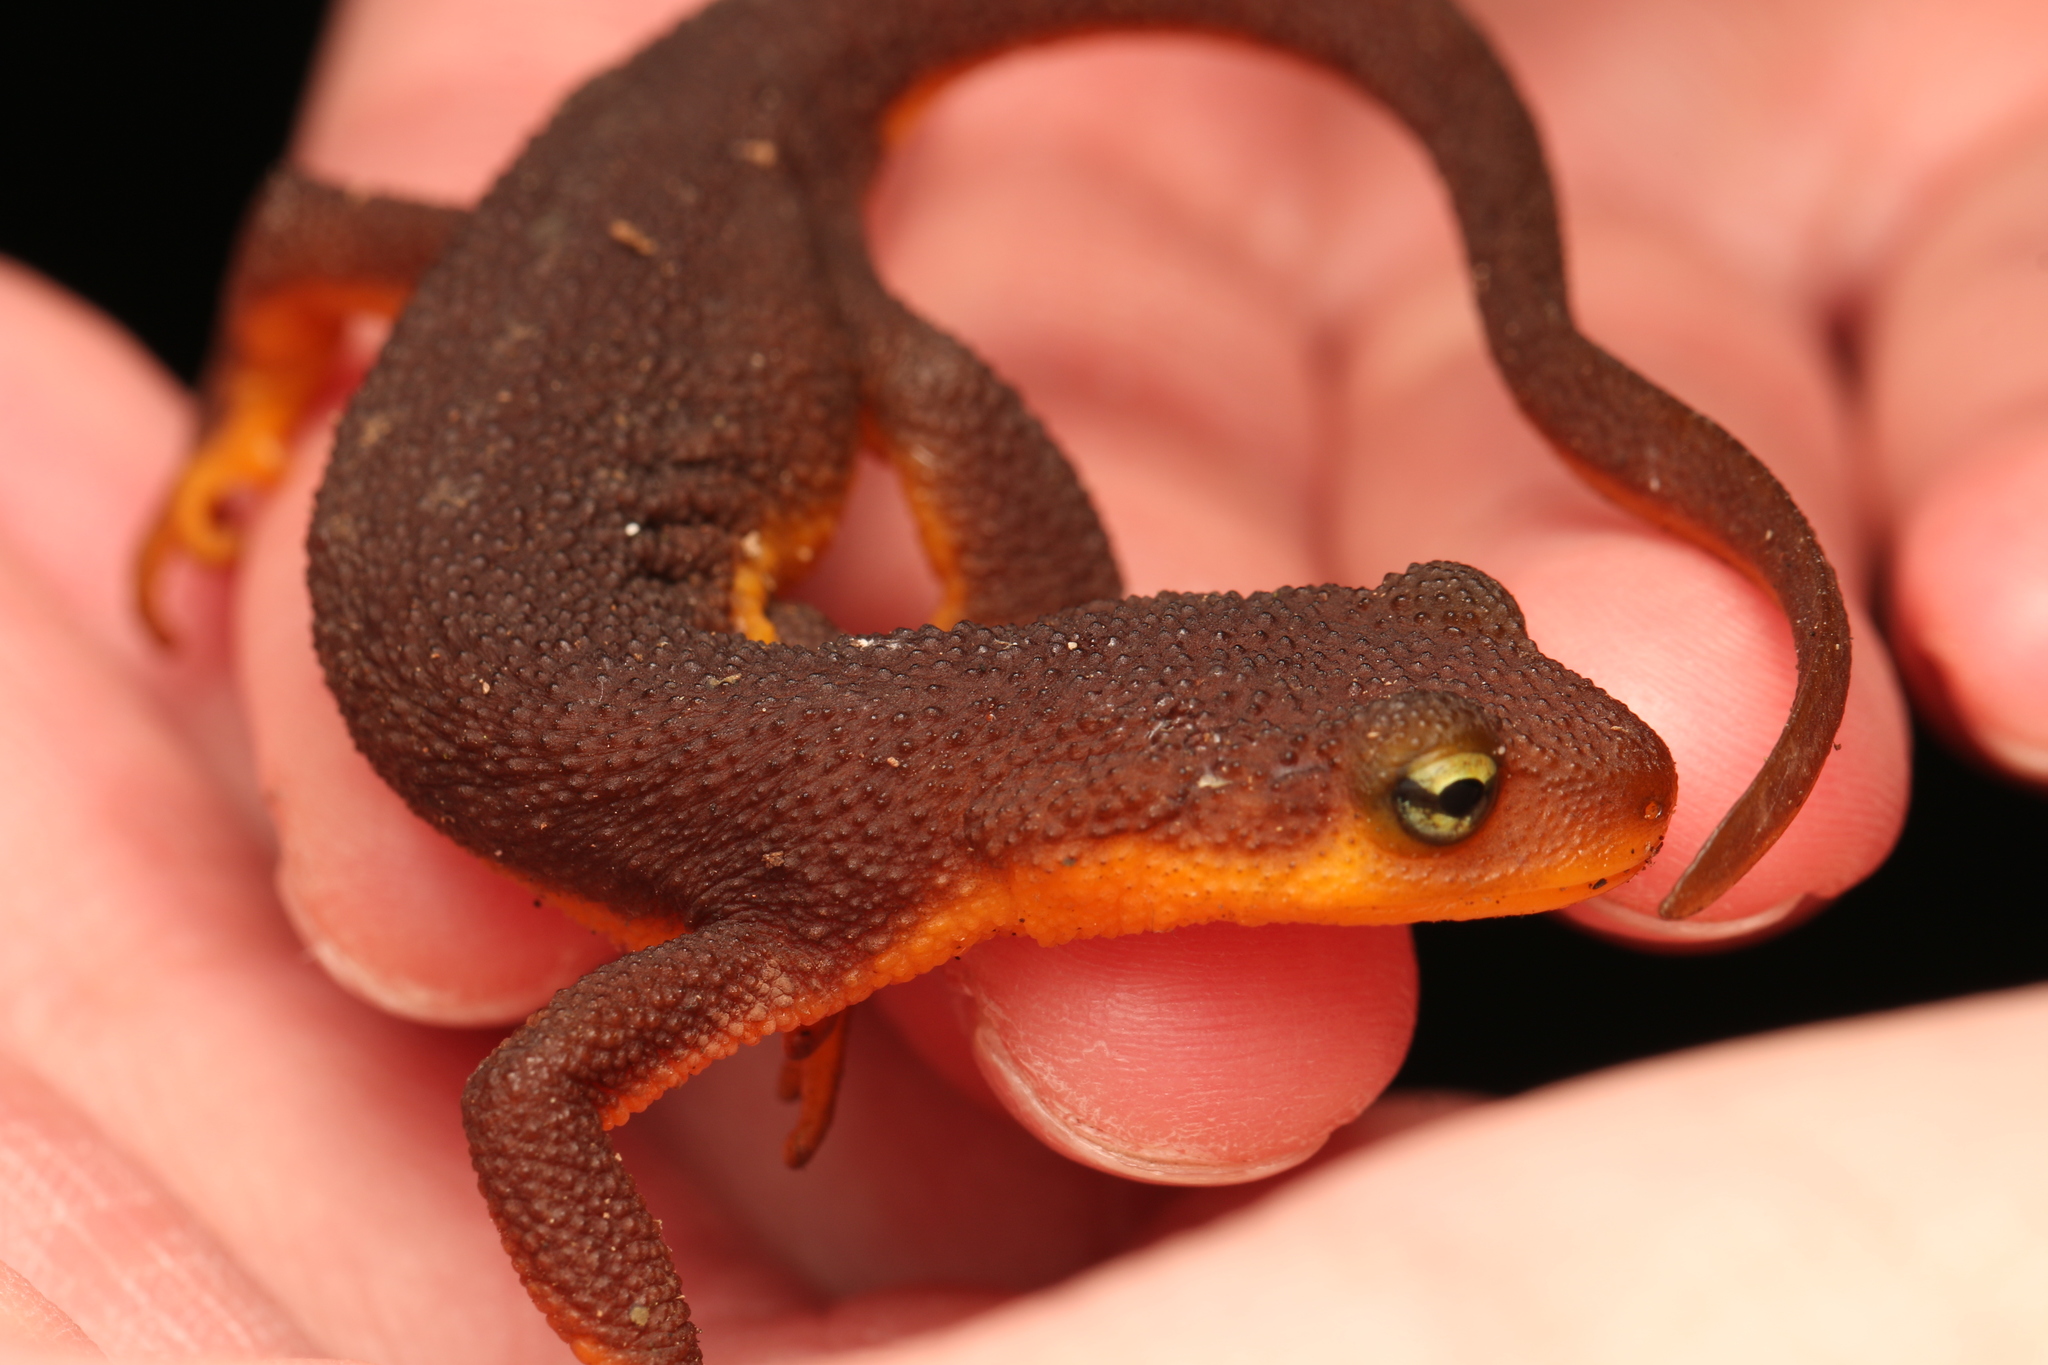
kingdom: Animalia
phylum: Chordata
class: Amphibia
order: Caudata
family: Salamandridae
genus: Taricha
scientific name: Taricha torosa
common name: California newt
